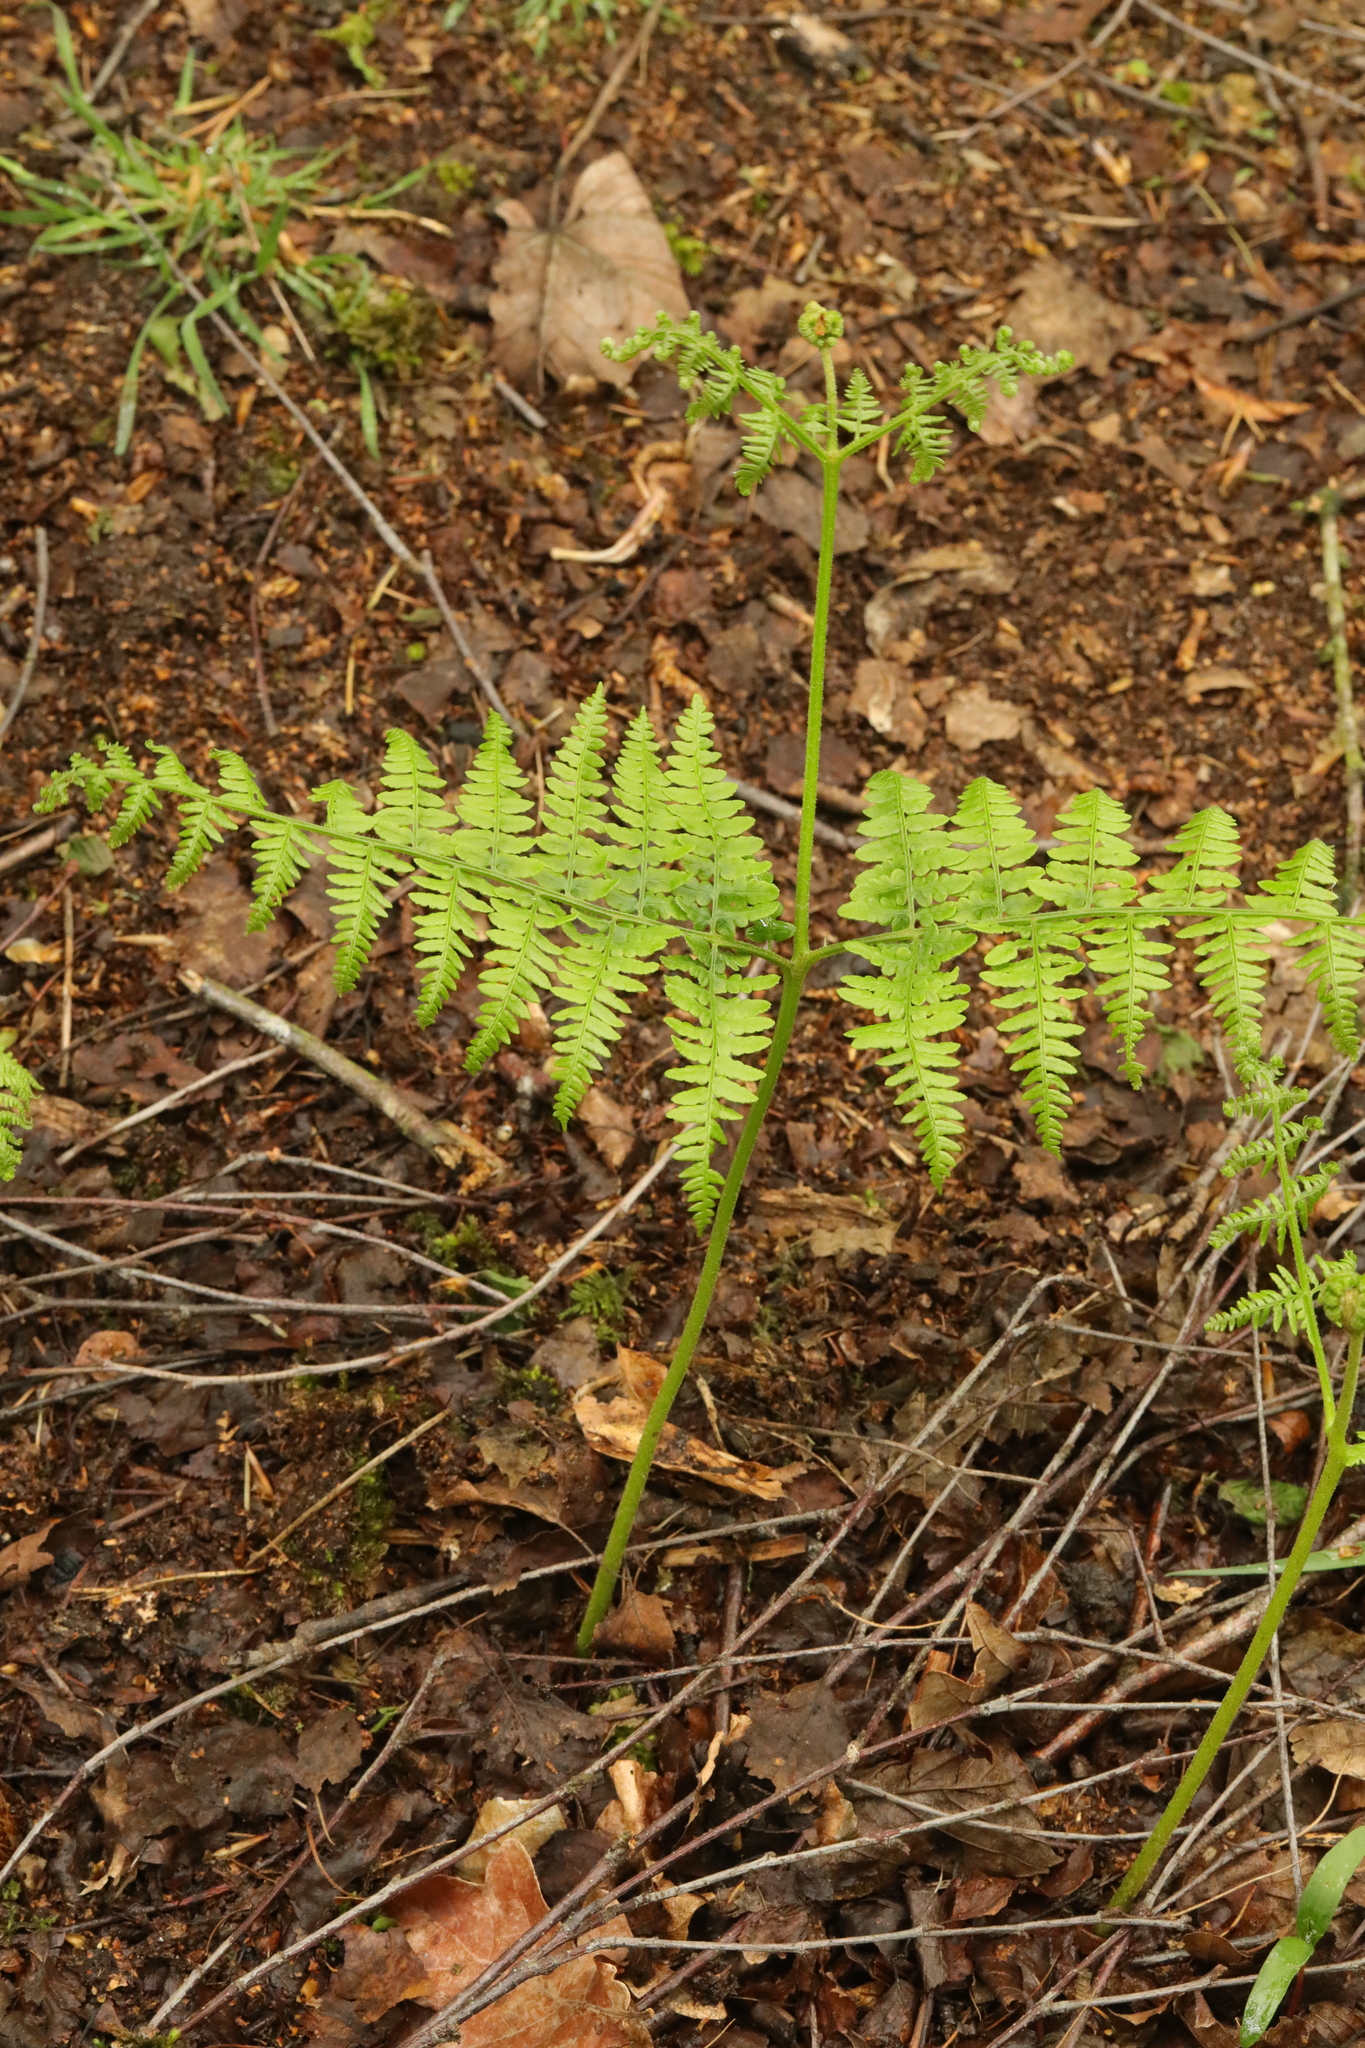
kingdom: Plantae
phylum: Tracheophyta
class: Polypodiopsida
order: Polypodiales
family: Dennstaedtiaceae
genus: Pteridium
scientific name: Pteridium aquilinum
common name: Bracken
